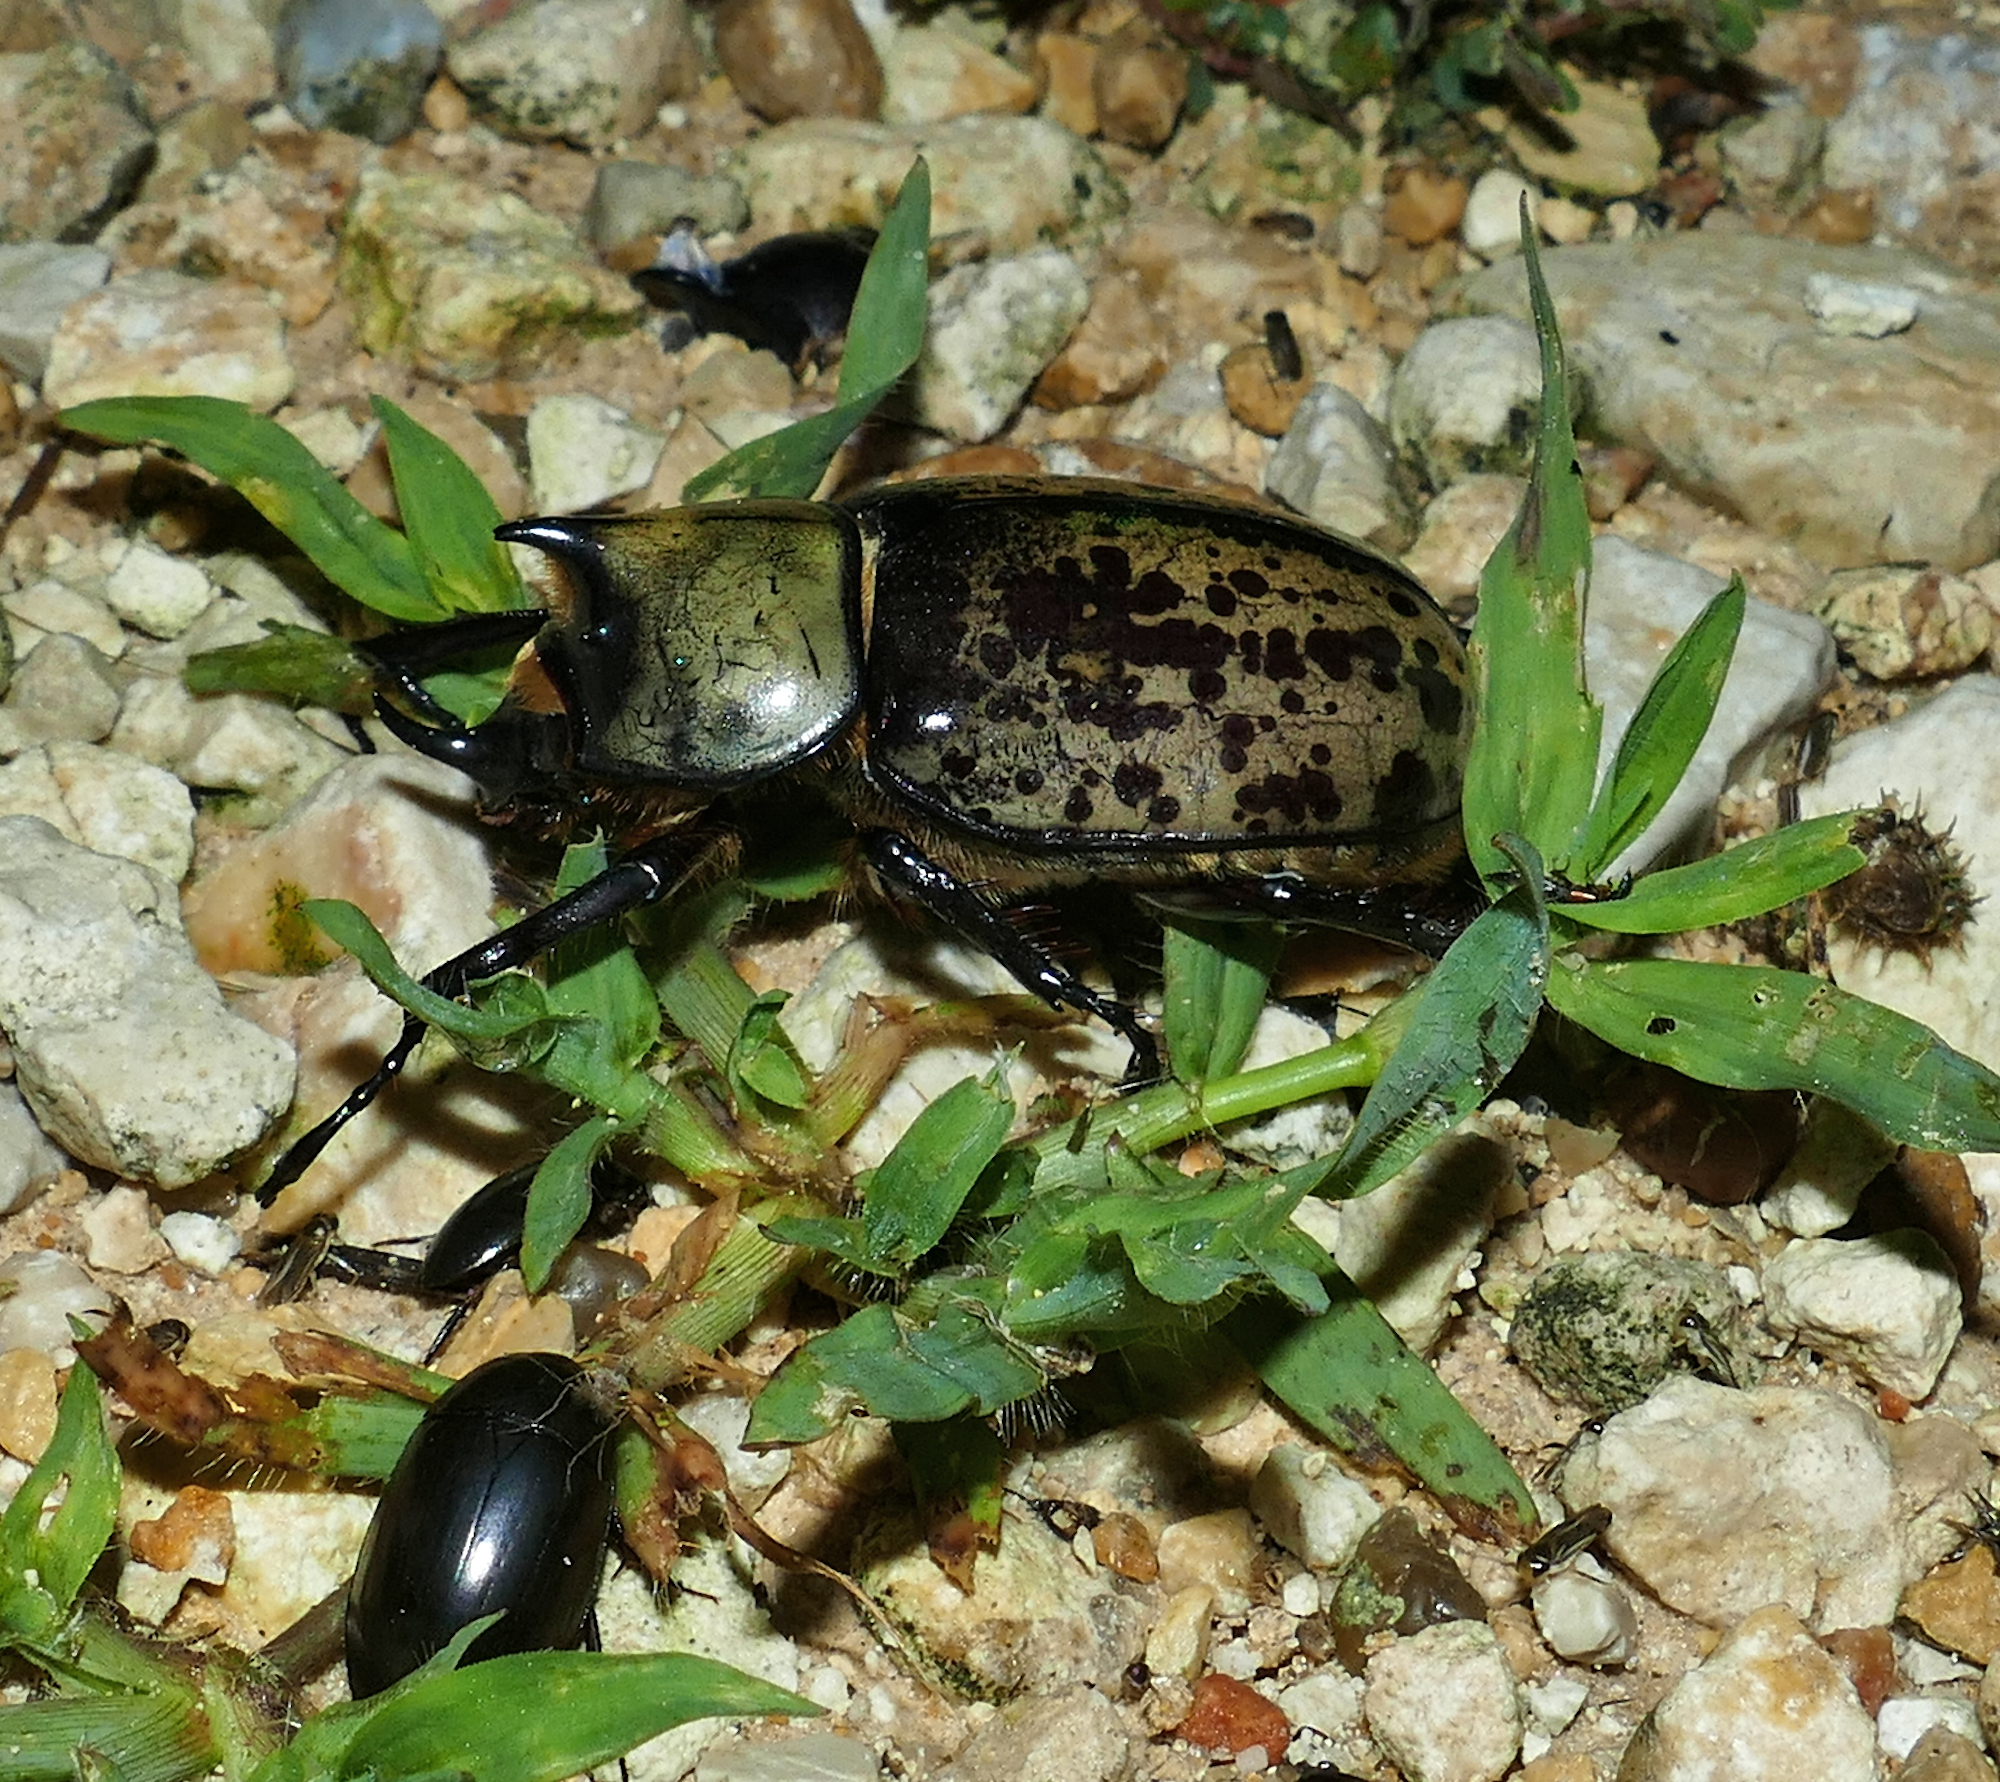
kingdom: Animalia
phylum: Arthropoda
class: Insecta
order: Coleoptera
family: Scarabaeidae
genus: Dynastes
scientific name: Dynastes tityus
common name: Eastern hercules beetle
